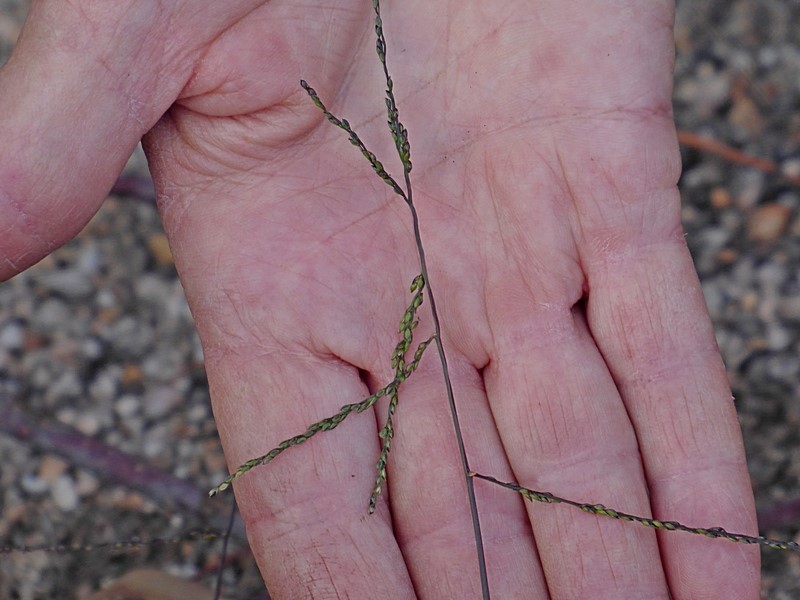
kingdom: Plantae
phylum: Tracheophyta
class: Liliopsida
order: Poales
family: Poaceae
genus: Digitaria
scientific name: Digitaria ramularis
